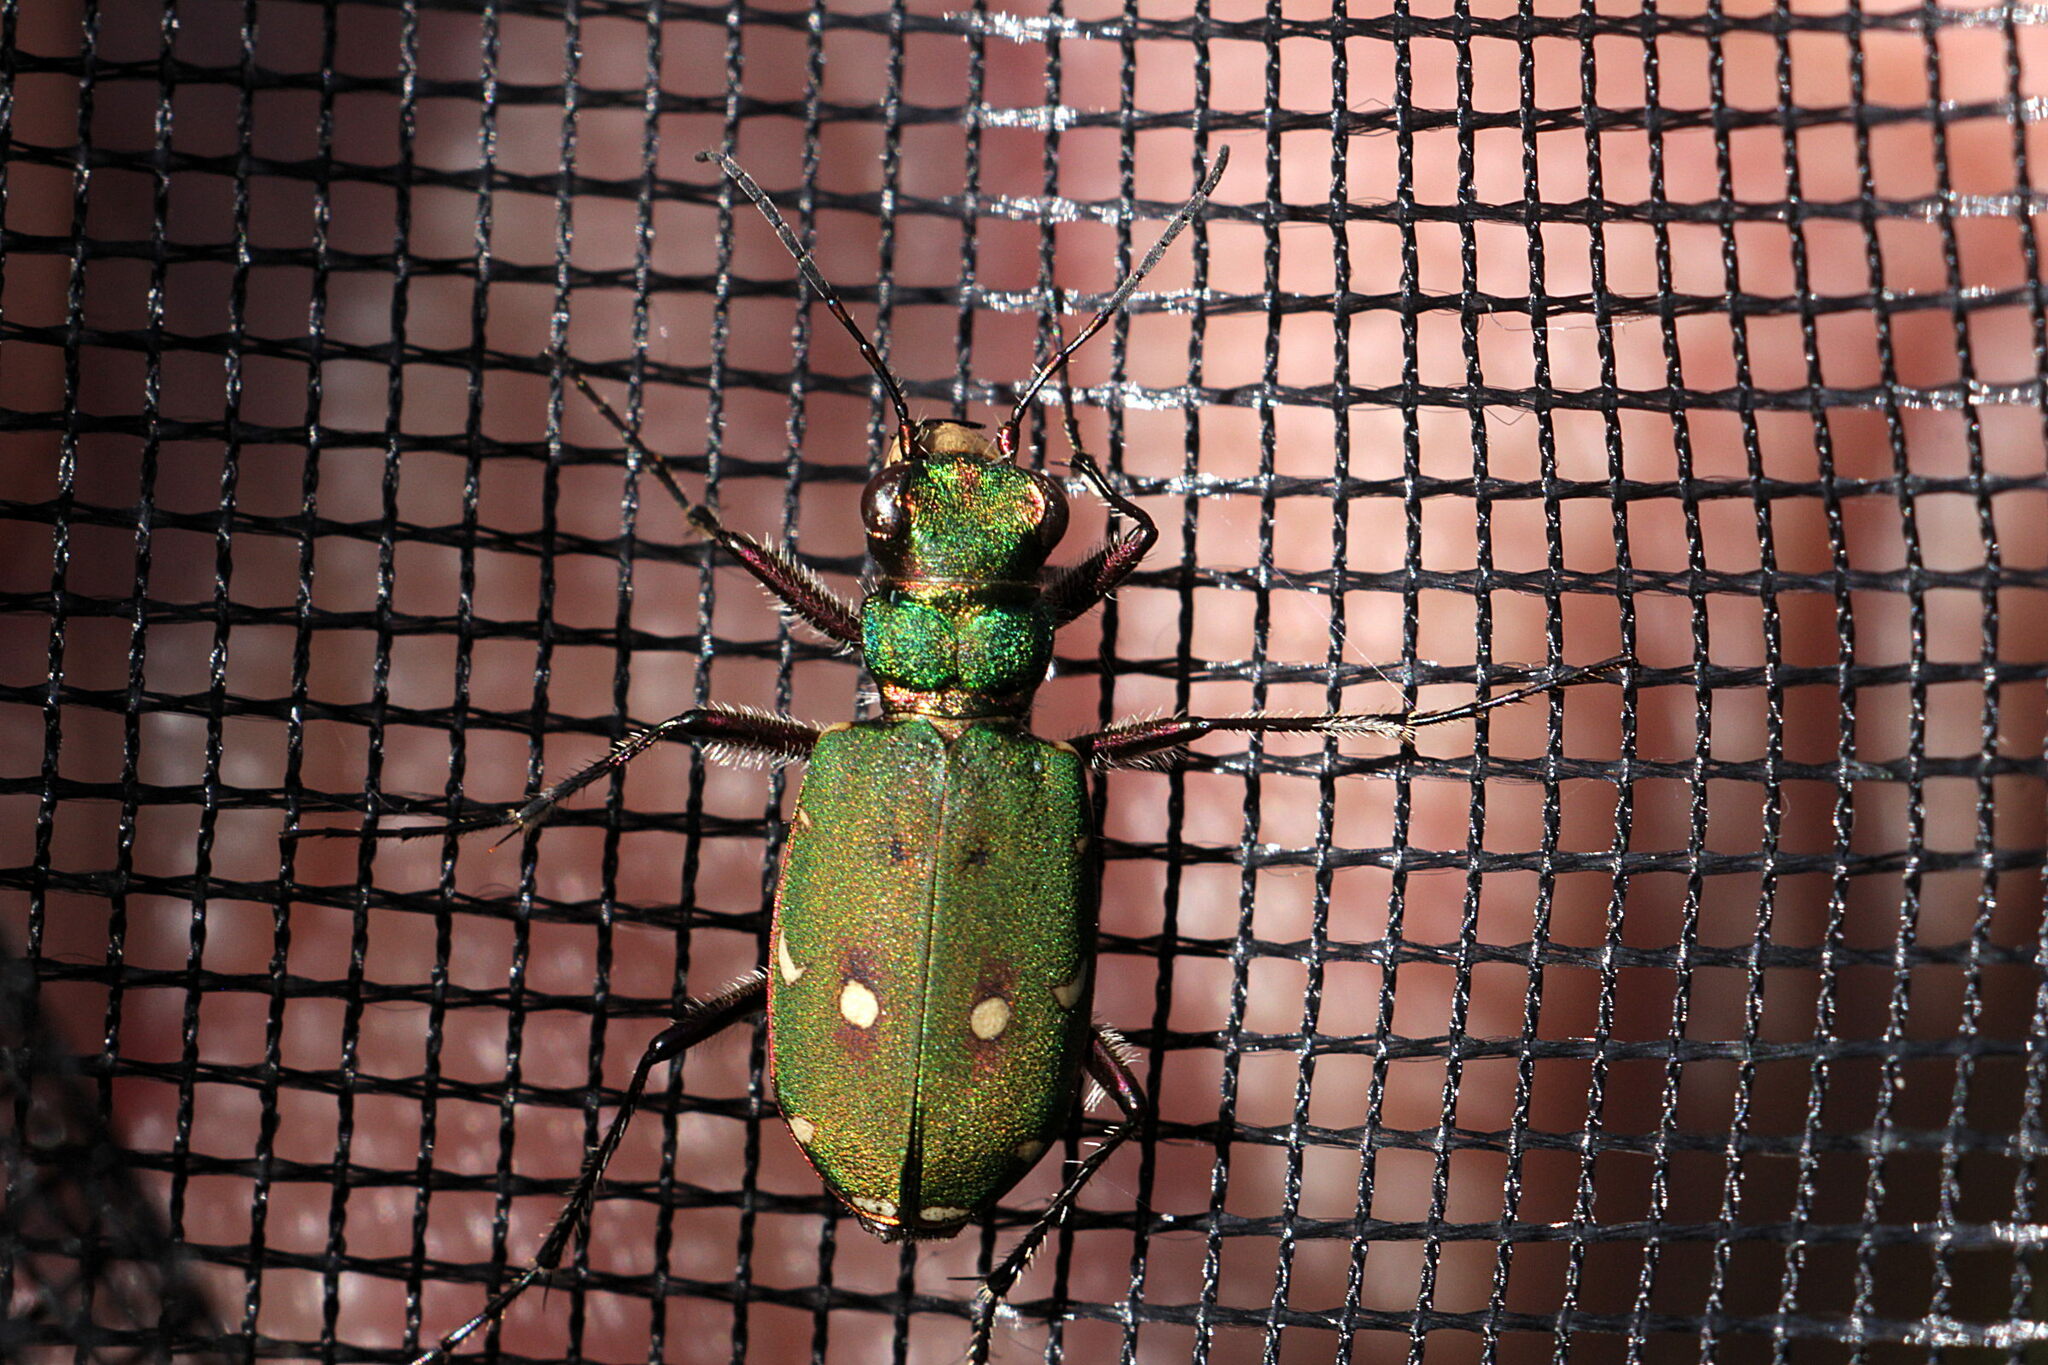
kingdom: Animalia
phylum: Arthropoda
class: Insecta
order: Coleoptera
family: Carabidae
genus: Cicindela
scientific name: Cicindela campestris
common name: Common tiger beetle
